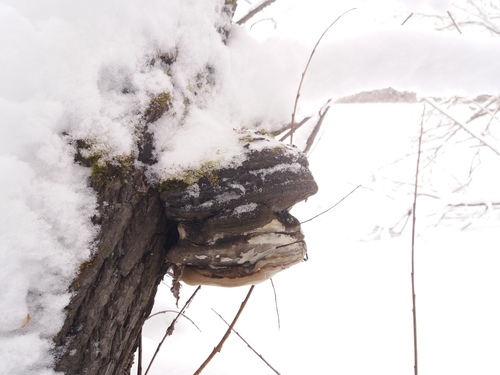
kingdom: Fungi
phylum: Basidiomycota
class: Agaricomycetes
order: Hymenochaetales
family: Hymenochaetaceae
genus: Phellinus
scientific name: Phellinus igniarius
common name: Willow bracket
